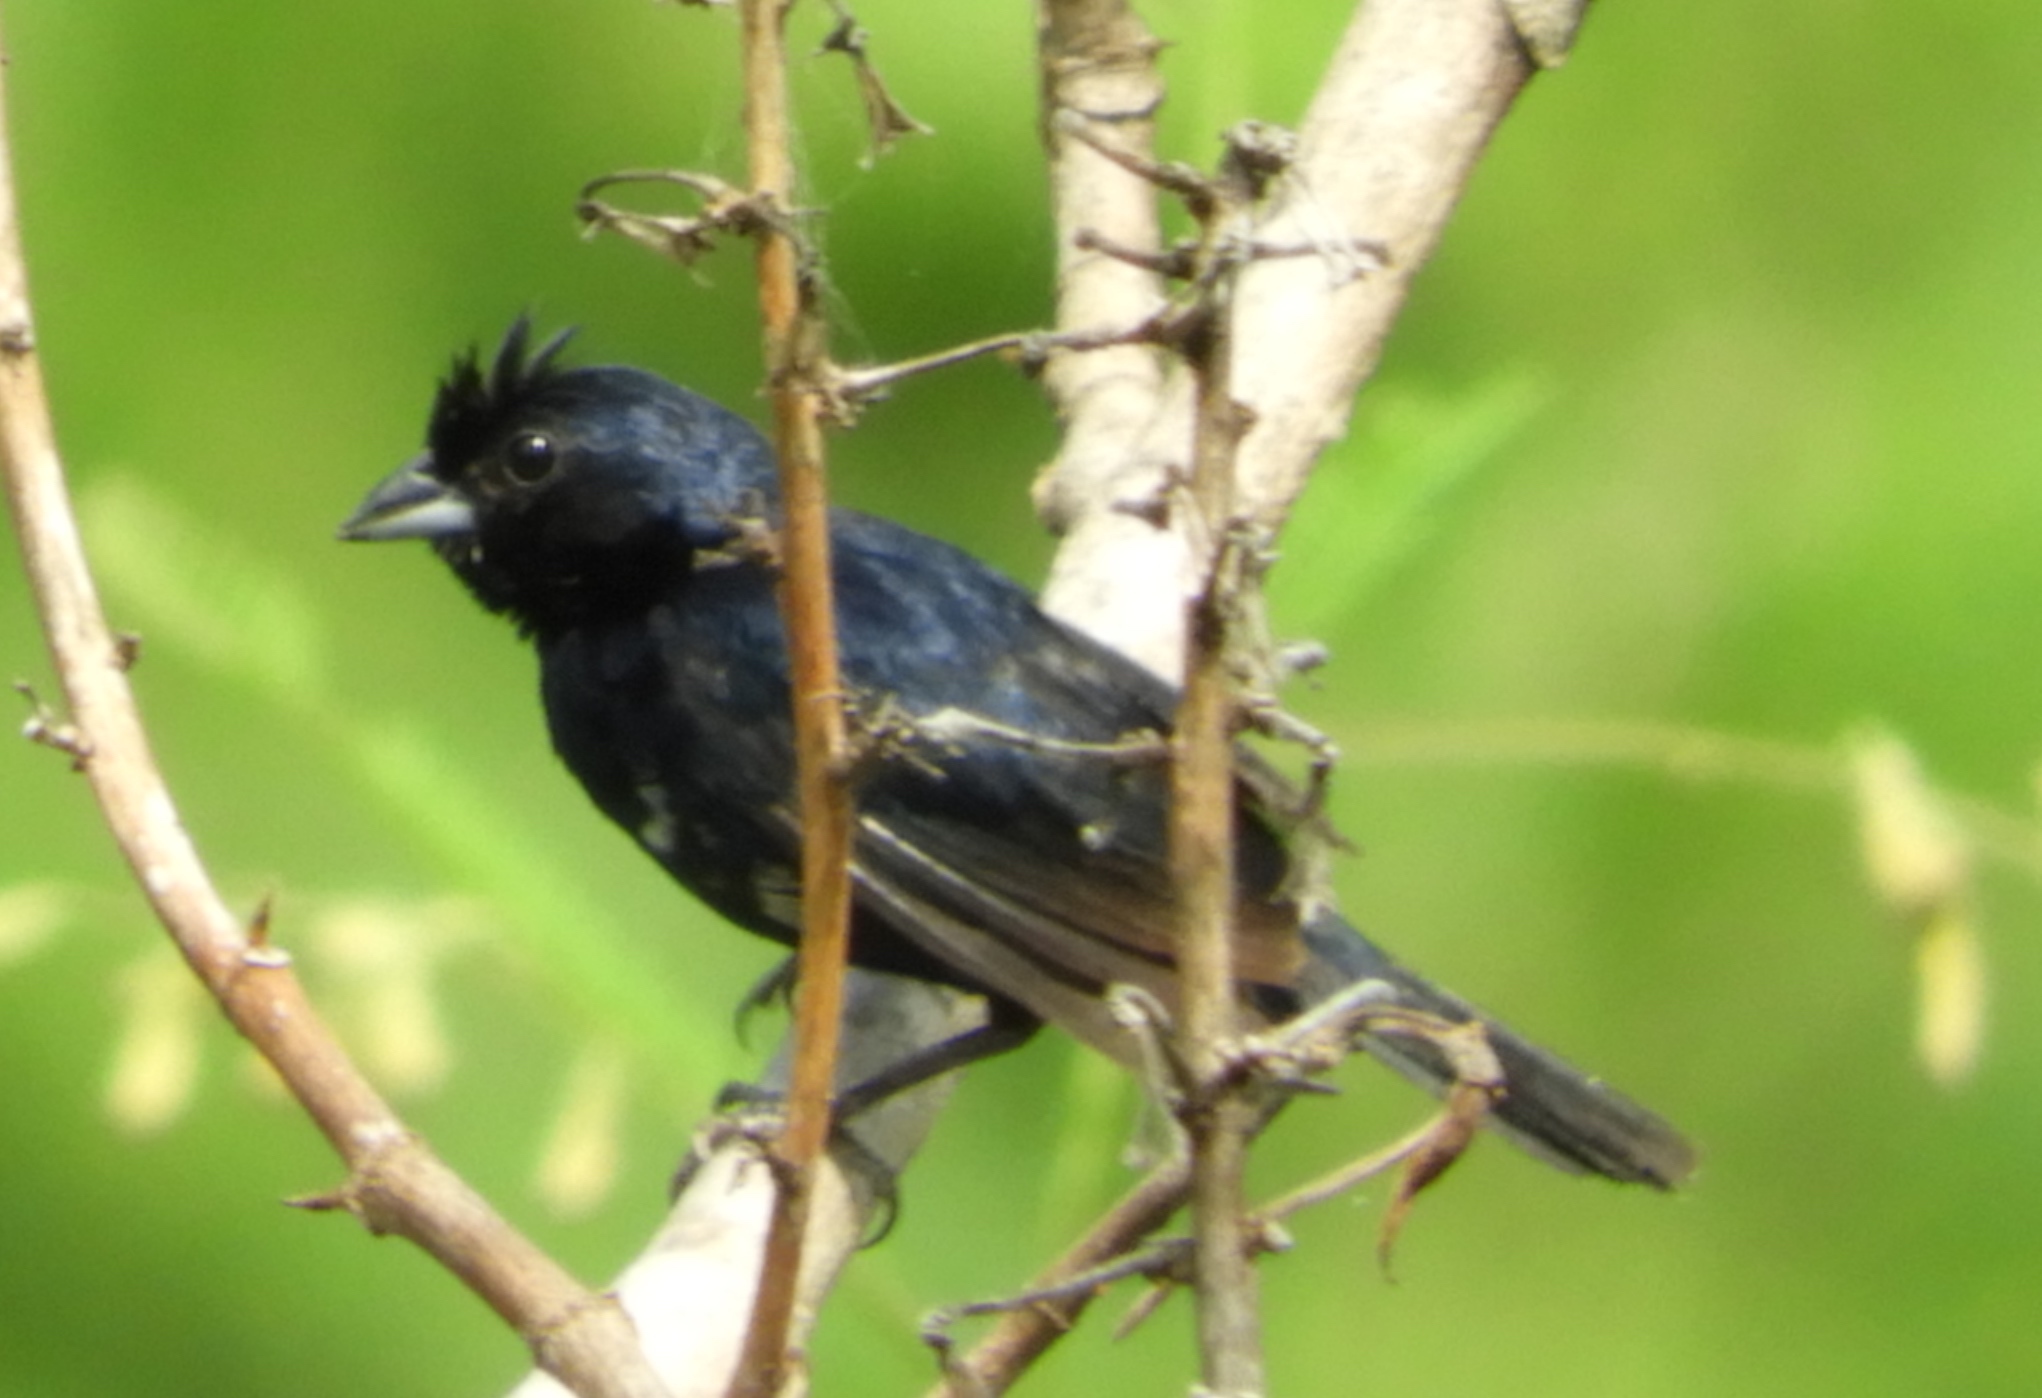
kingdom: Animalia
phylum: Chordata
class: Aves
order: Passeriformes
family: Thraupidae
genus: Volatinia
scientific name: Volatinia jacarina
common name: Blue-black grassquit
